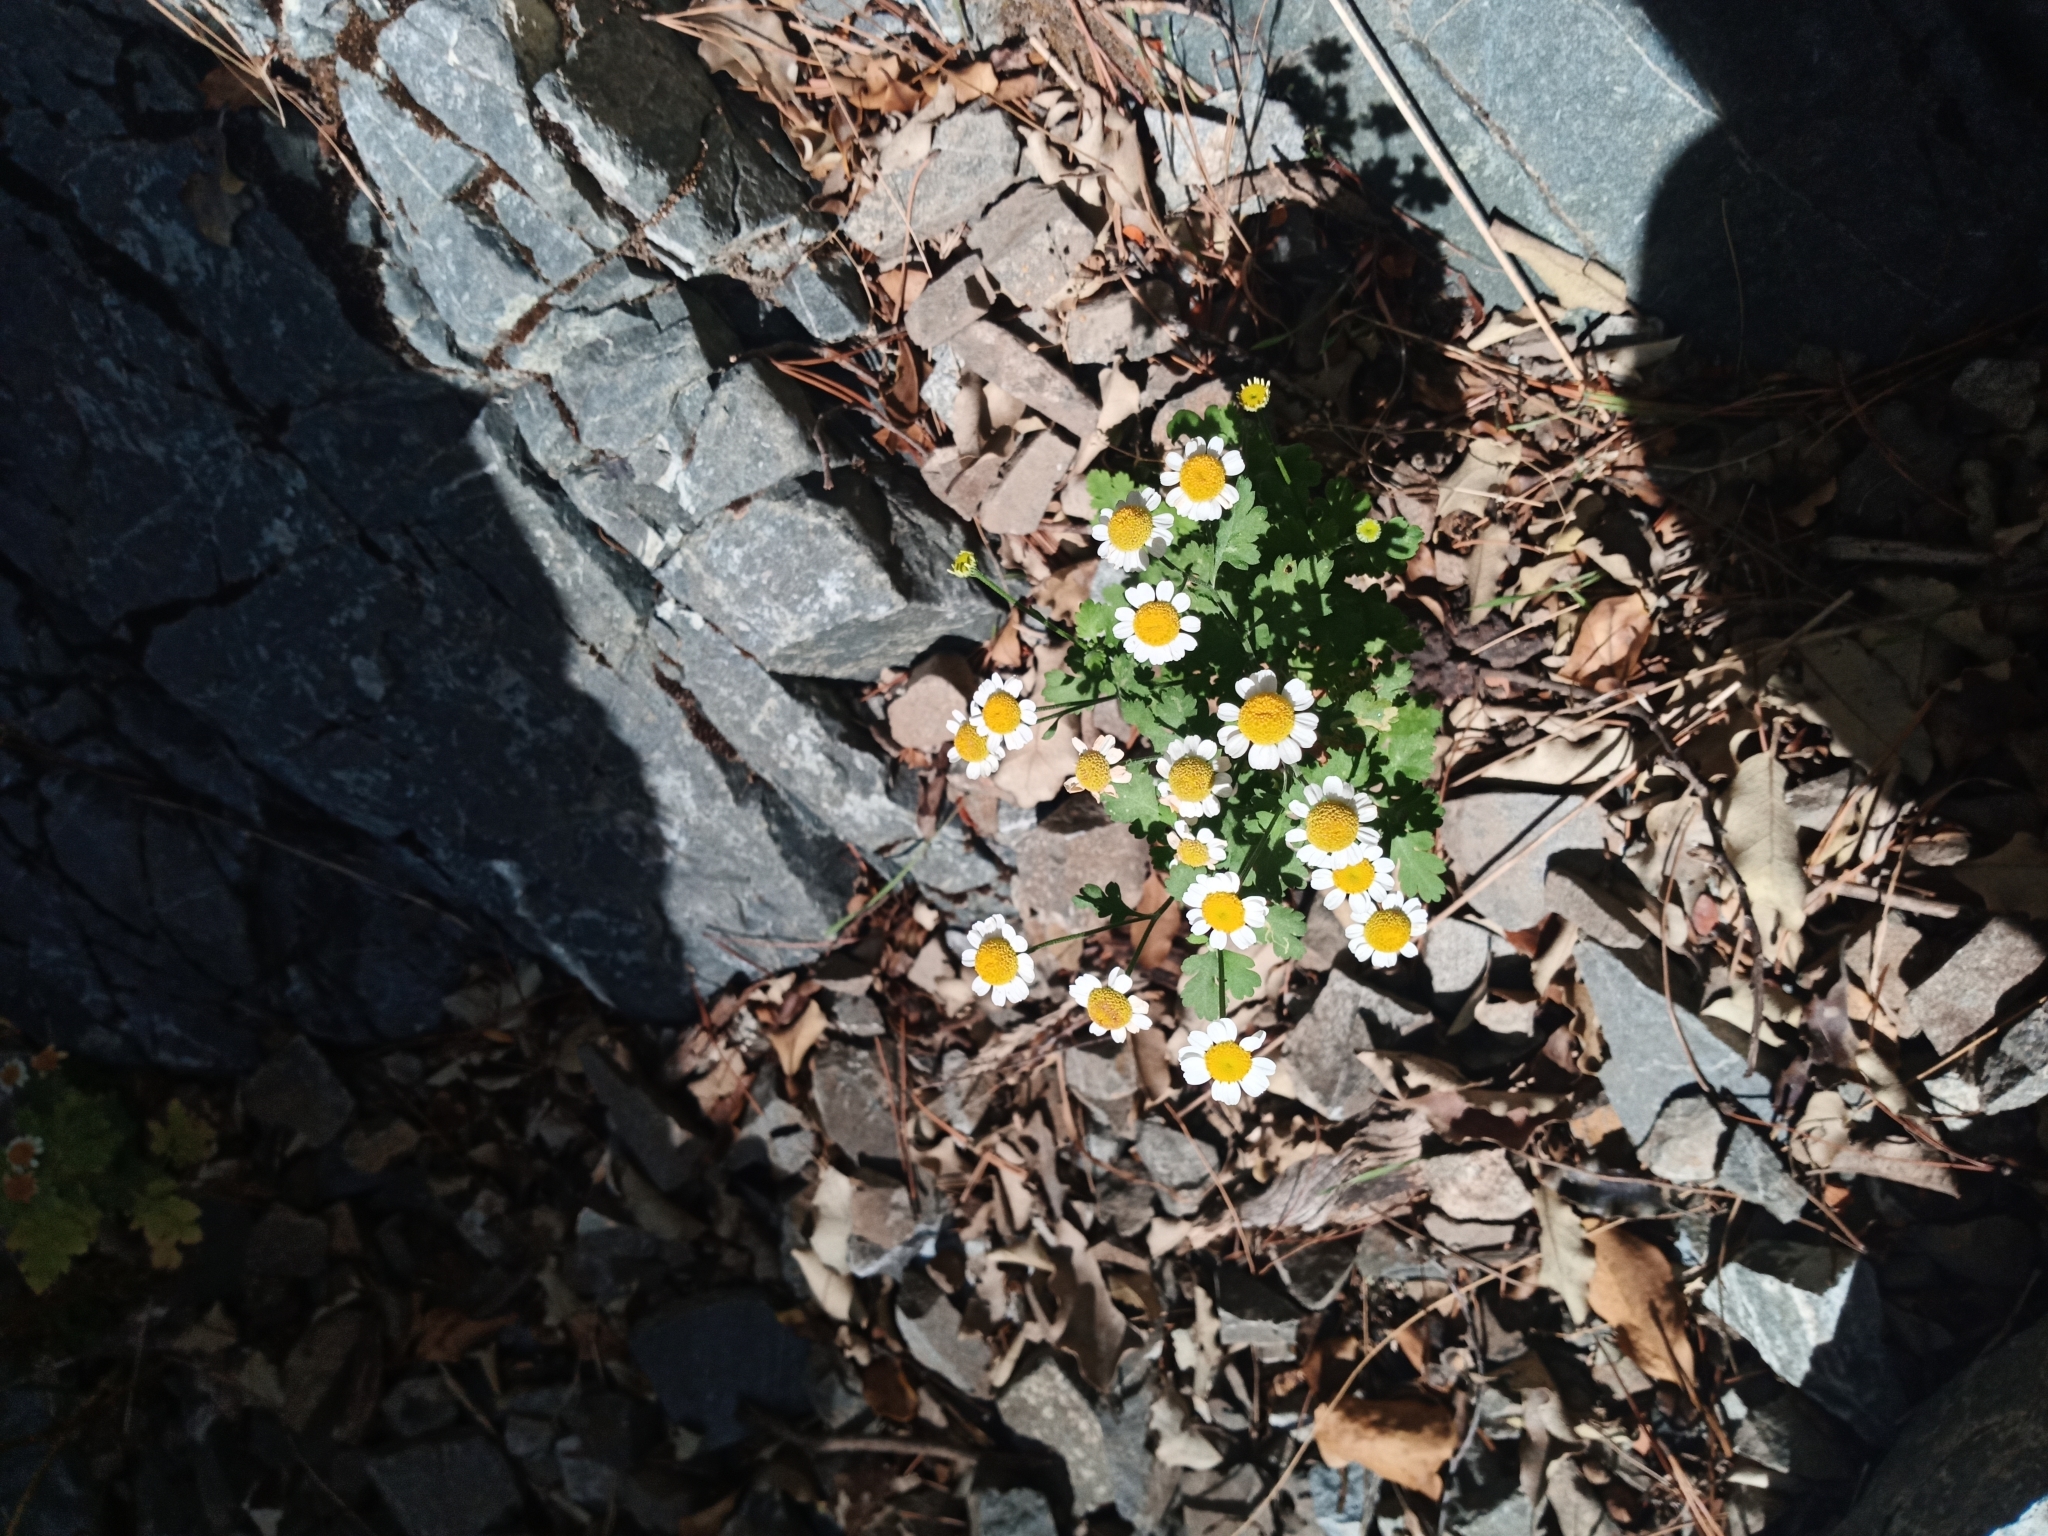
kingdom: Plantae
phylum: Tracheophyta
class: Magnoliopsida
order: Asterales
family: Asteraceae
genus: Tanacetum
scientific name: Tanacetum parthenium
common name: Feverfew
